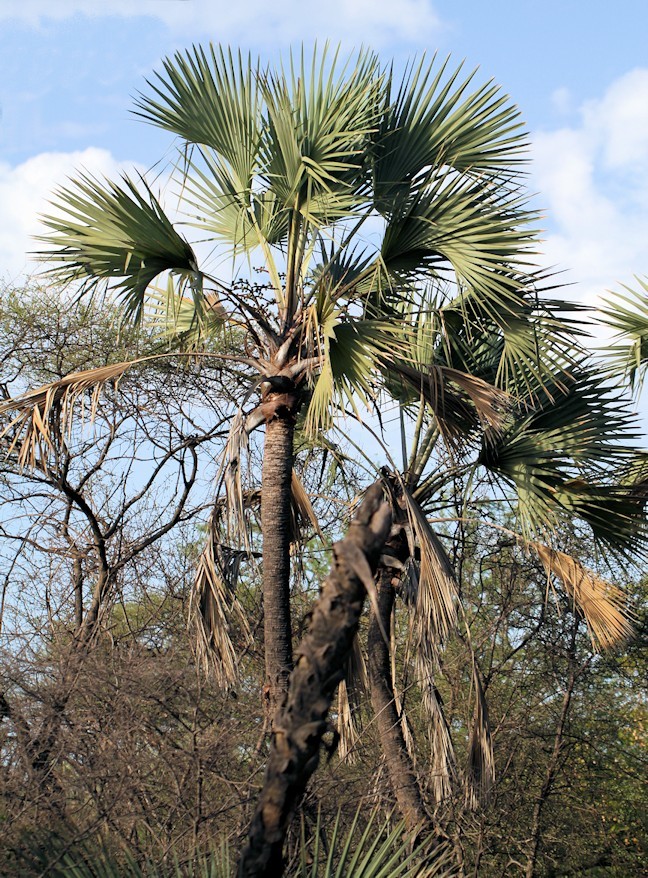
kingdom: Plantae
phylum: Tracheophyta
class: Liliopsida
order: Arecales
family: Arecaceae
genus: Hyphaene
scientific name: Hyphaene petersiana
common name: African ivory nut palm
